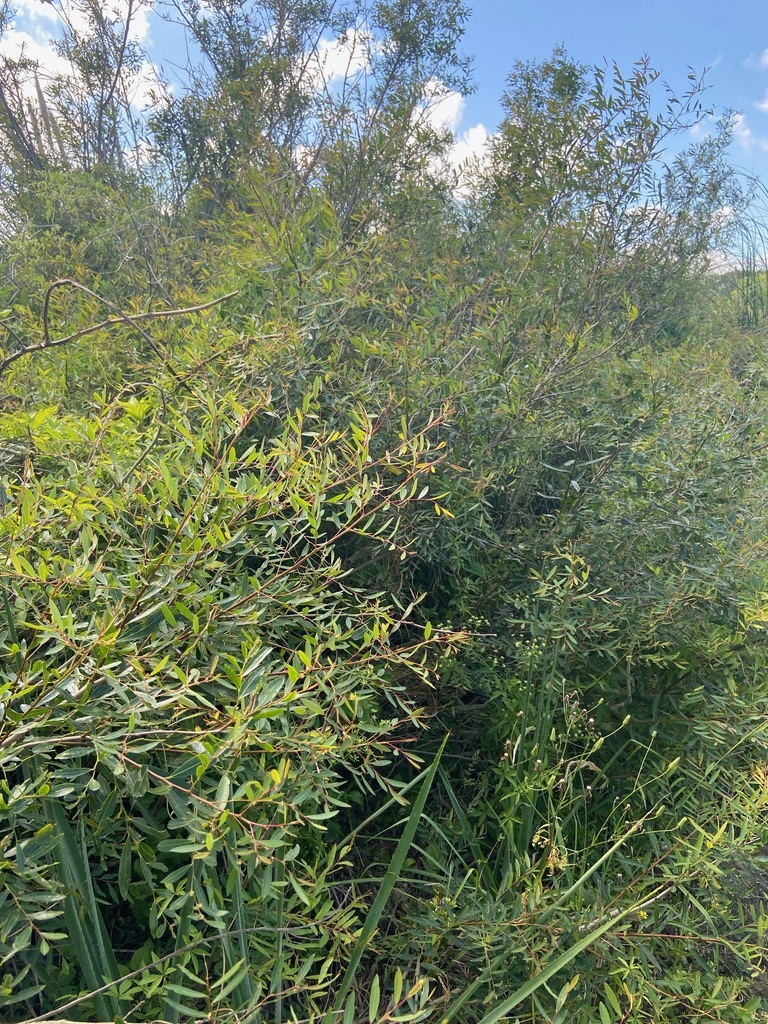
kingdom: Plantae
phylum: Tracheophyta
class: Magnoliopsida
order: Malpighiales
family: Phyllanthaceae
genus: Phyllanthus
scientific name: Phyllanthus sellowianus
